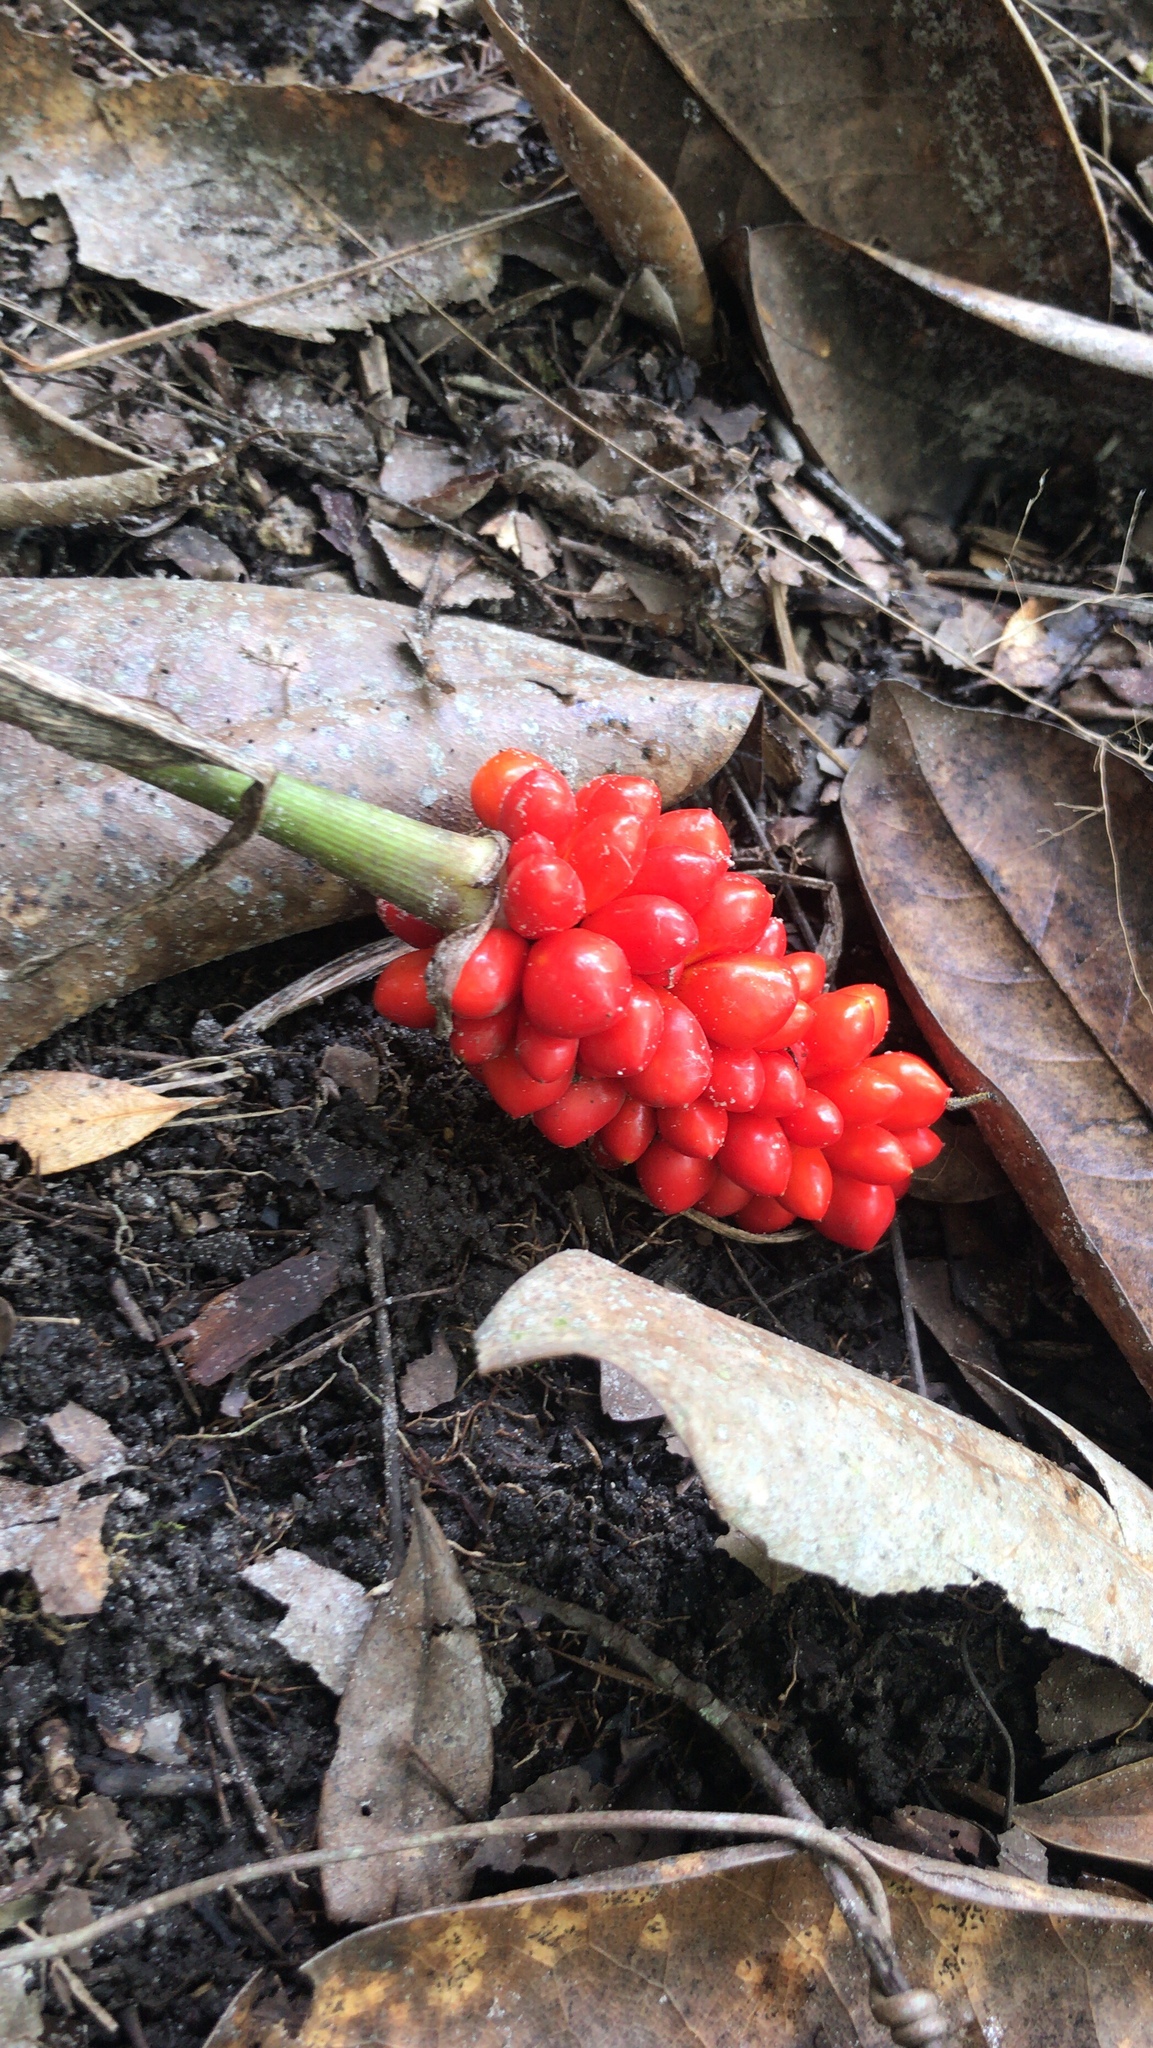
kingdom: Plantae
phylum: Tracheophyta
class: Liliopsida
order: Alismatales
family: Araceae
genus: Arisaema
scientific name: Arisaema triphyllum
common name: Jack-in-the-pulpit
